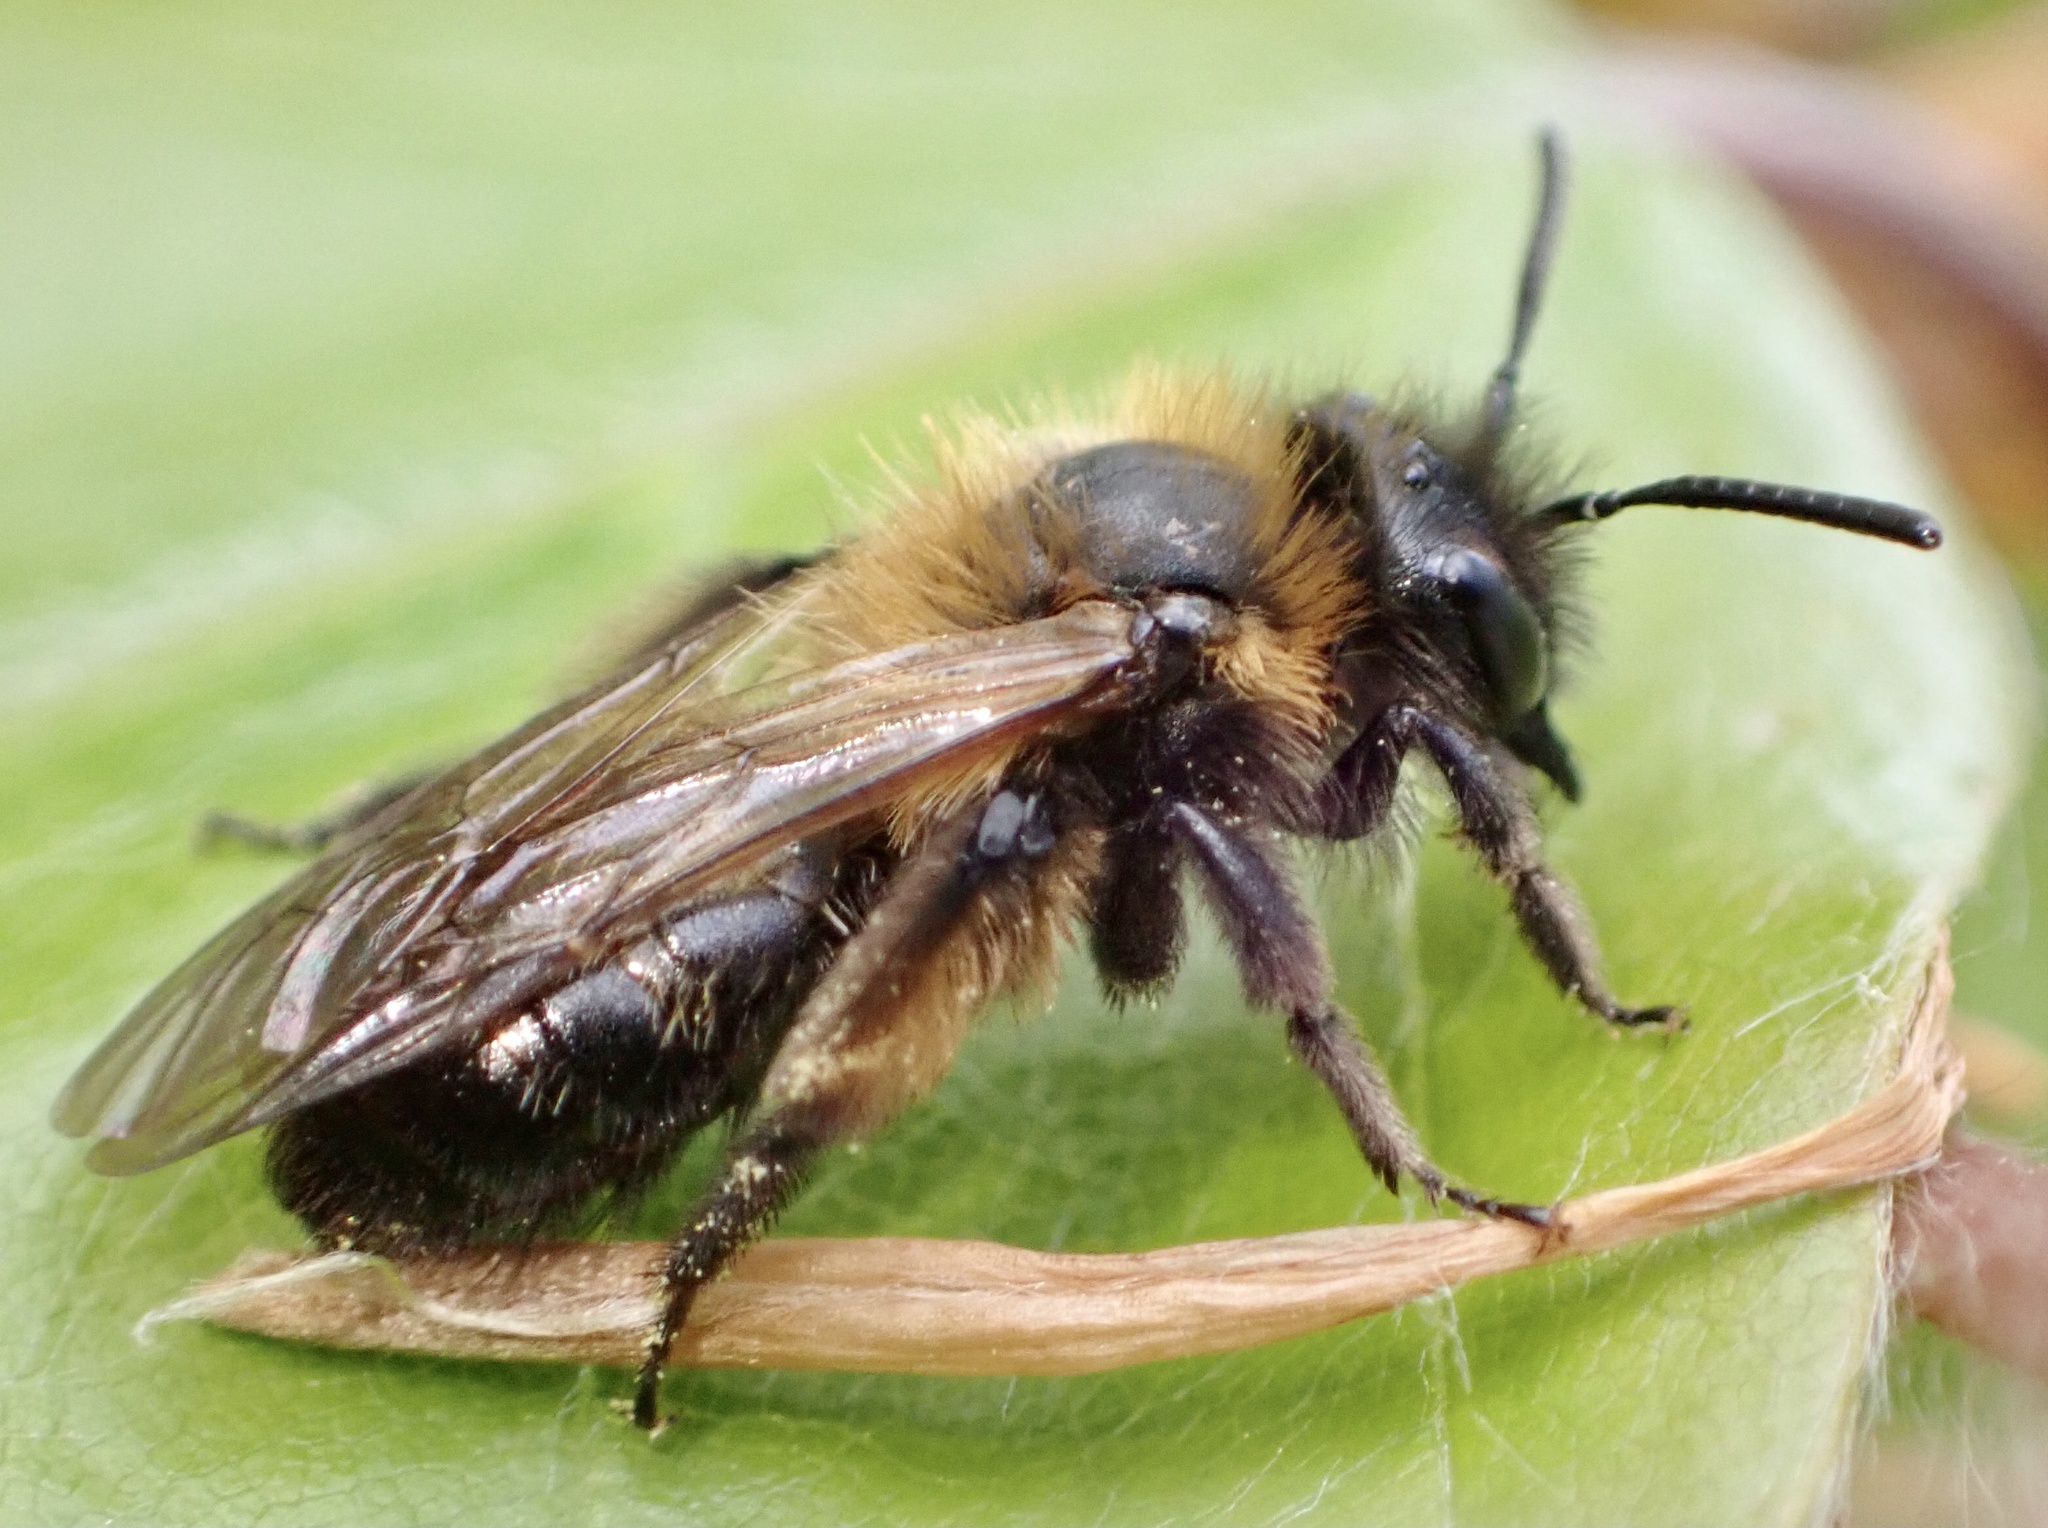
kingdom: Animalia
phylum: Arthropoda
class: Insecta
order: Hymenoptera
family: Andrenidae
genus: Andrena
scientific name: Andrena bicolor
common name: Gwynne's mining bee
